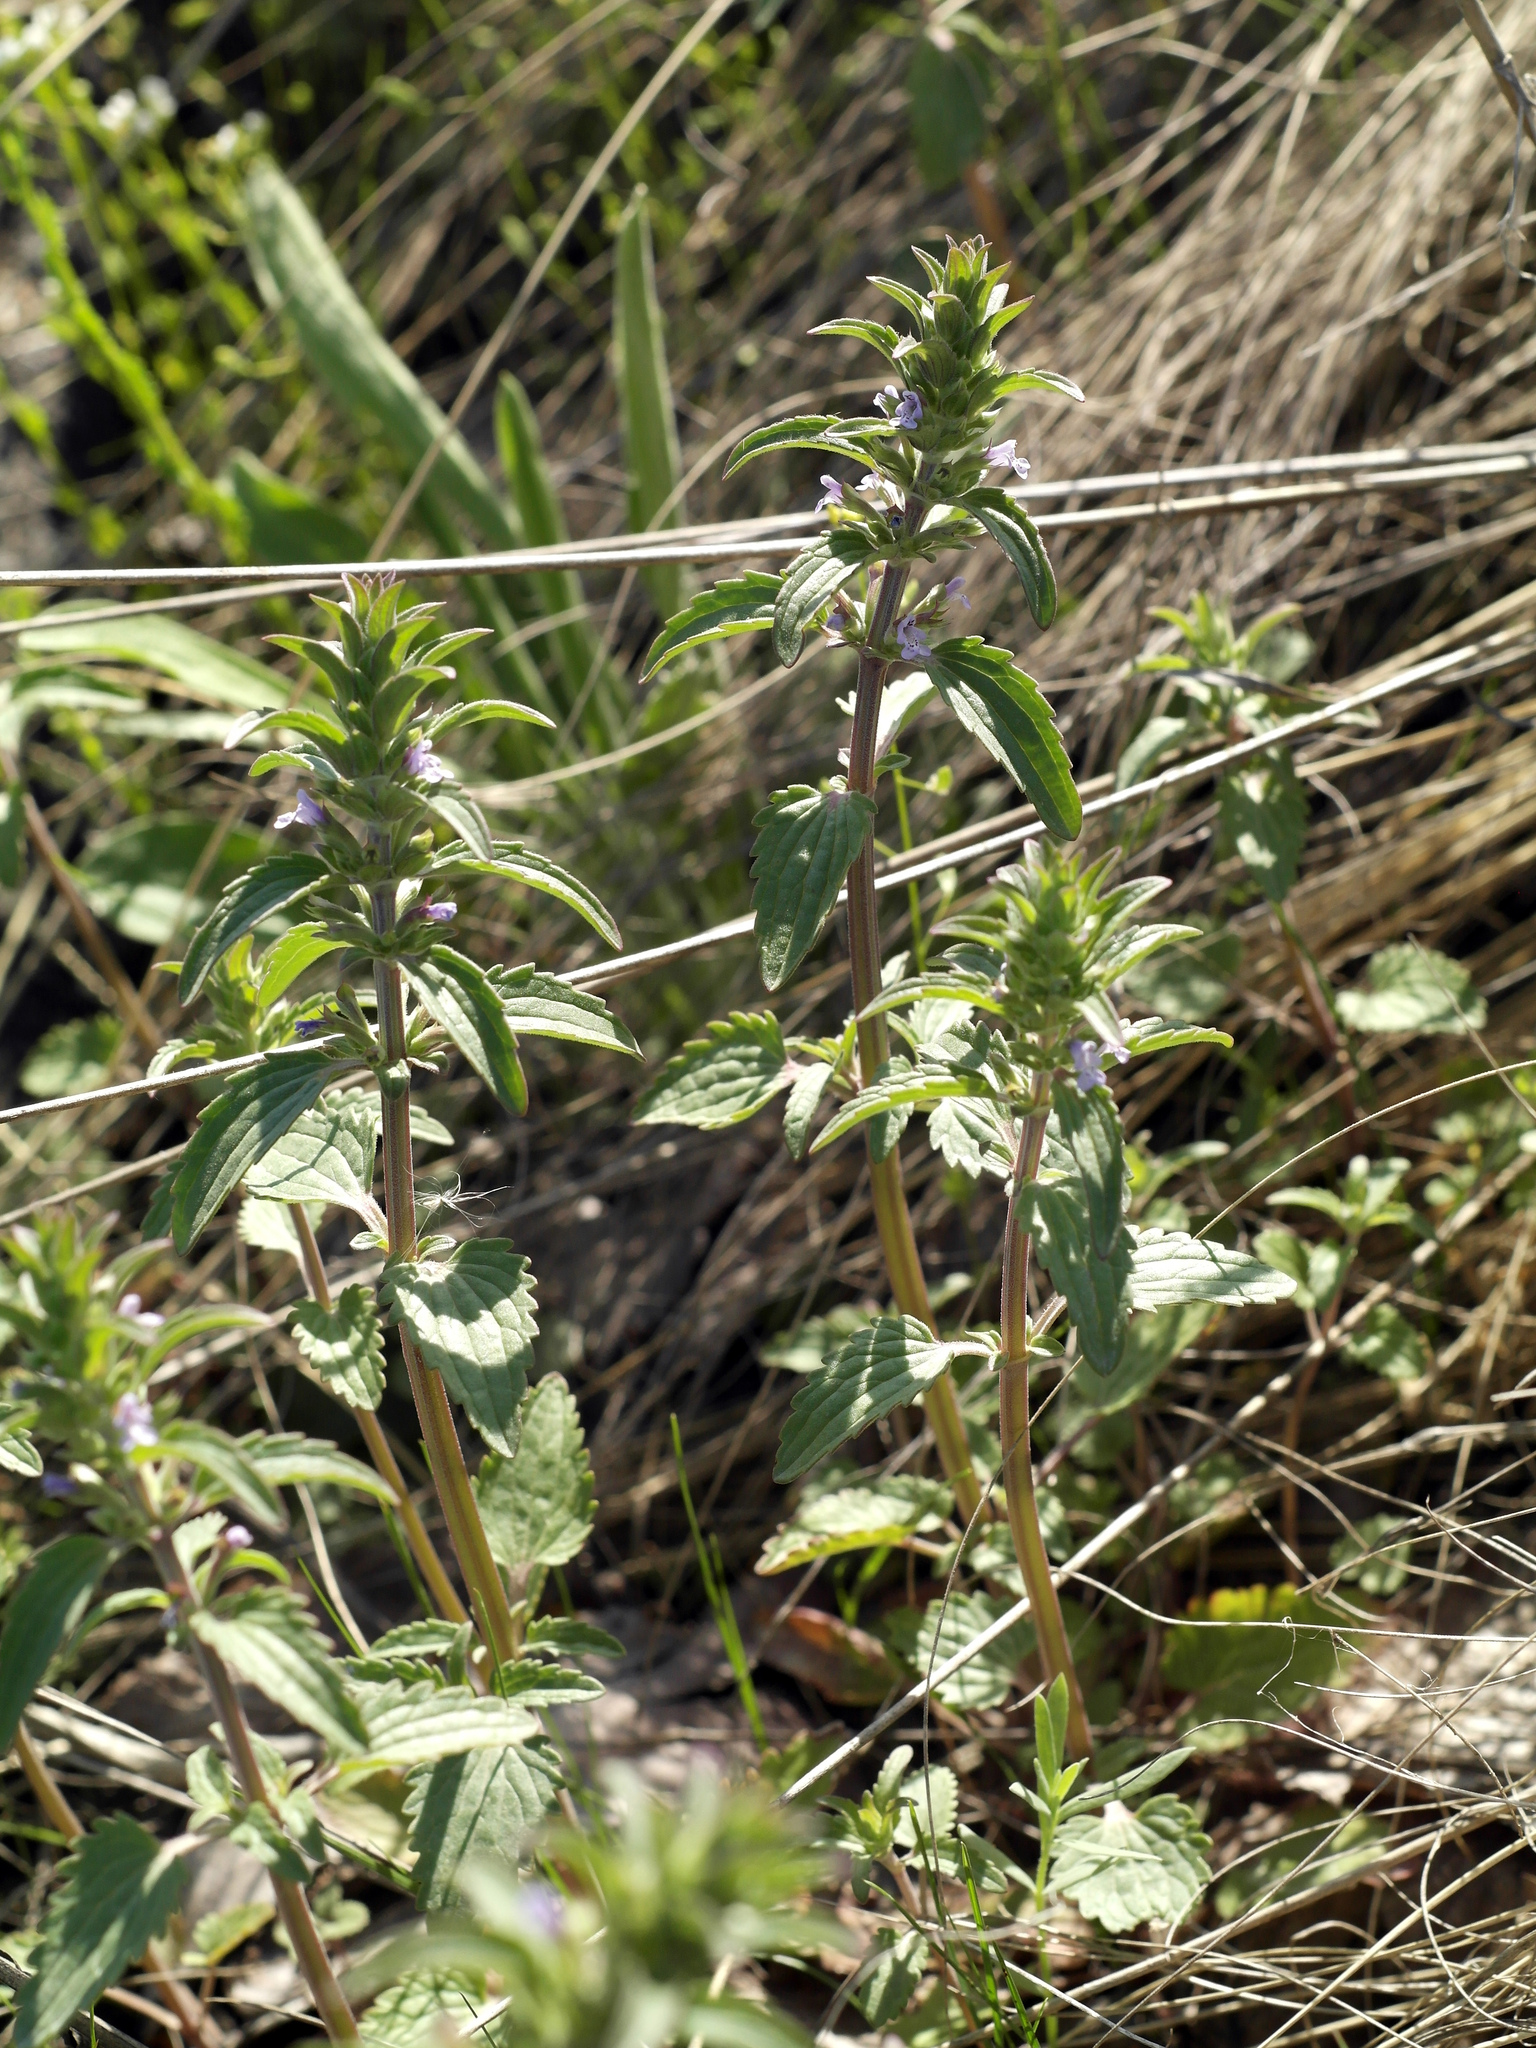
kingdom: Plantae
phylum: Tracheophyta
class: Magnoliopsida
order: Lamiales
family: Lamiaceae
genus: Dracocephalum
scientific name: Dracocephalum thymiflorum
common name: Thymeleaf dragonhead
